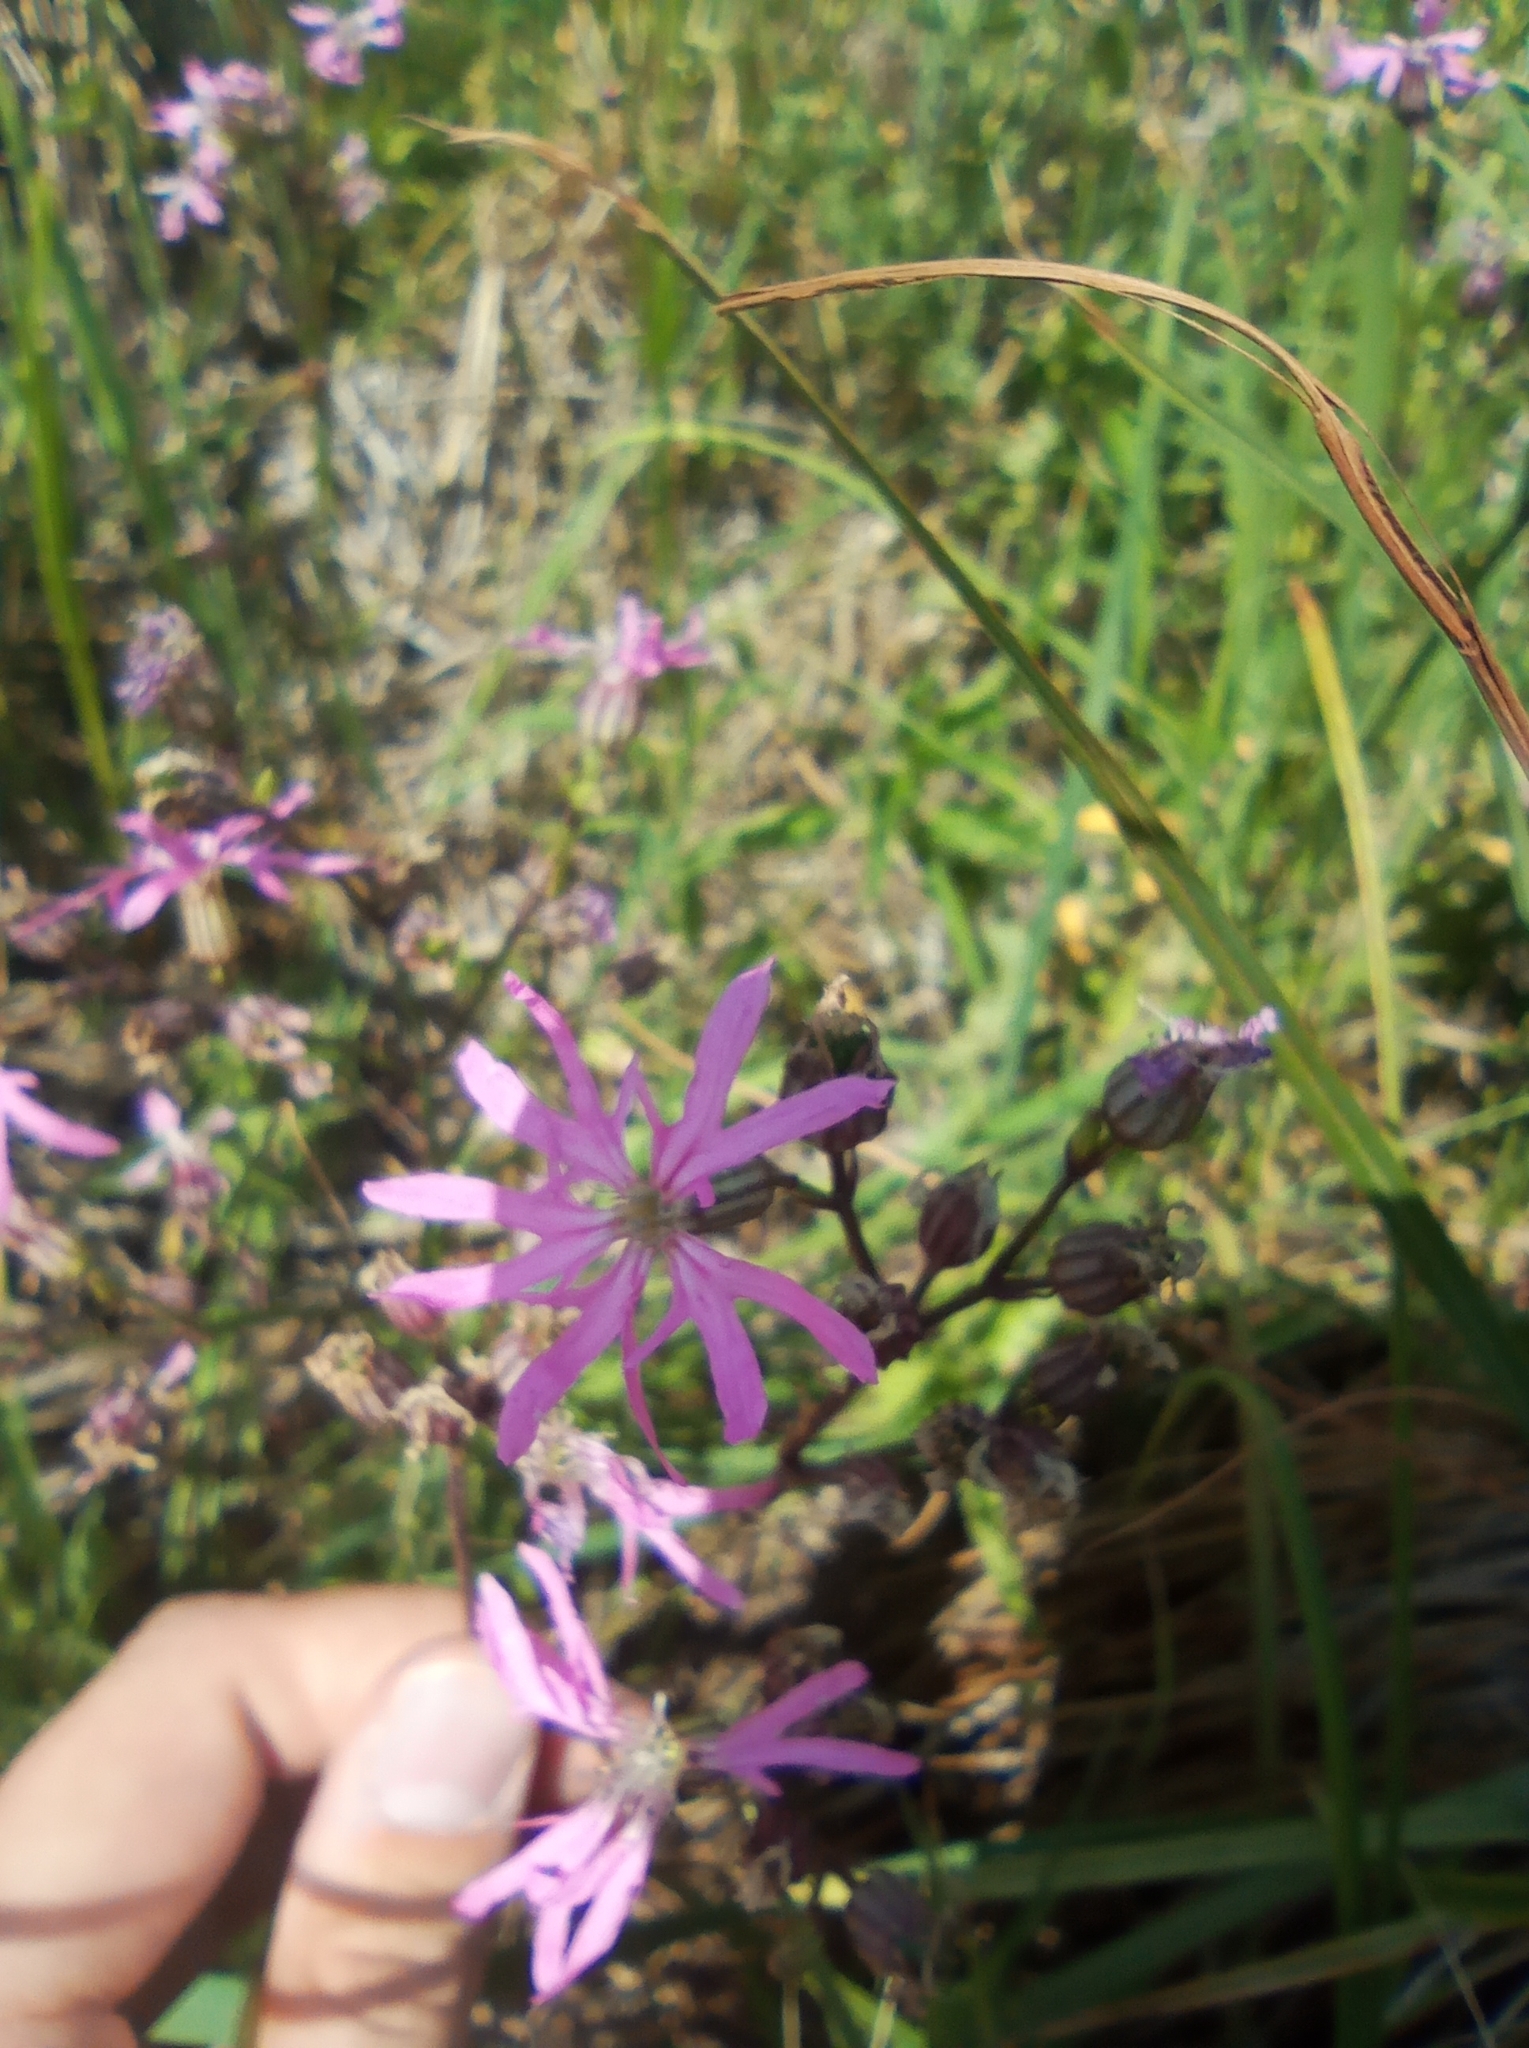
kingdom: Plantae
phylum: Tracheophyta
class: Magnoliopsida
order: Caryophyllales
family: Caryophyllaceae
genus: Silene
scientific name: Silene flos-cuculi
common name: Ragged-robin
